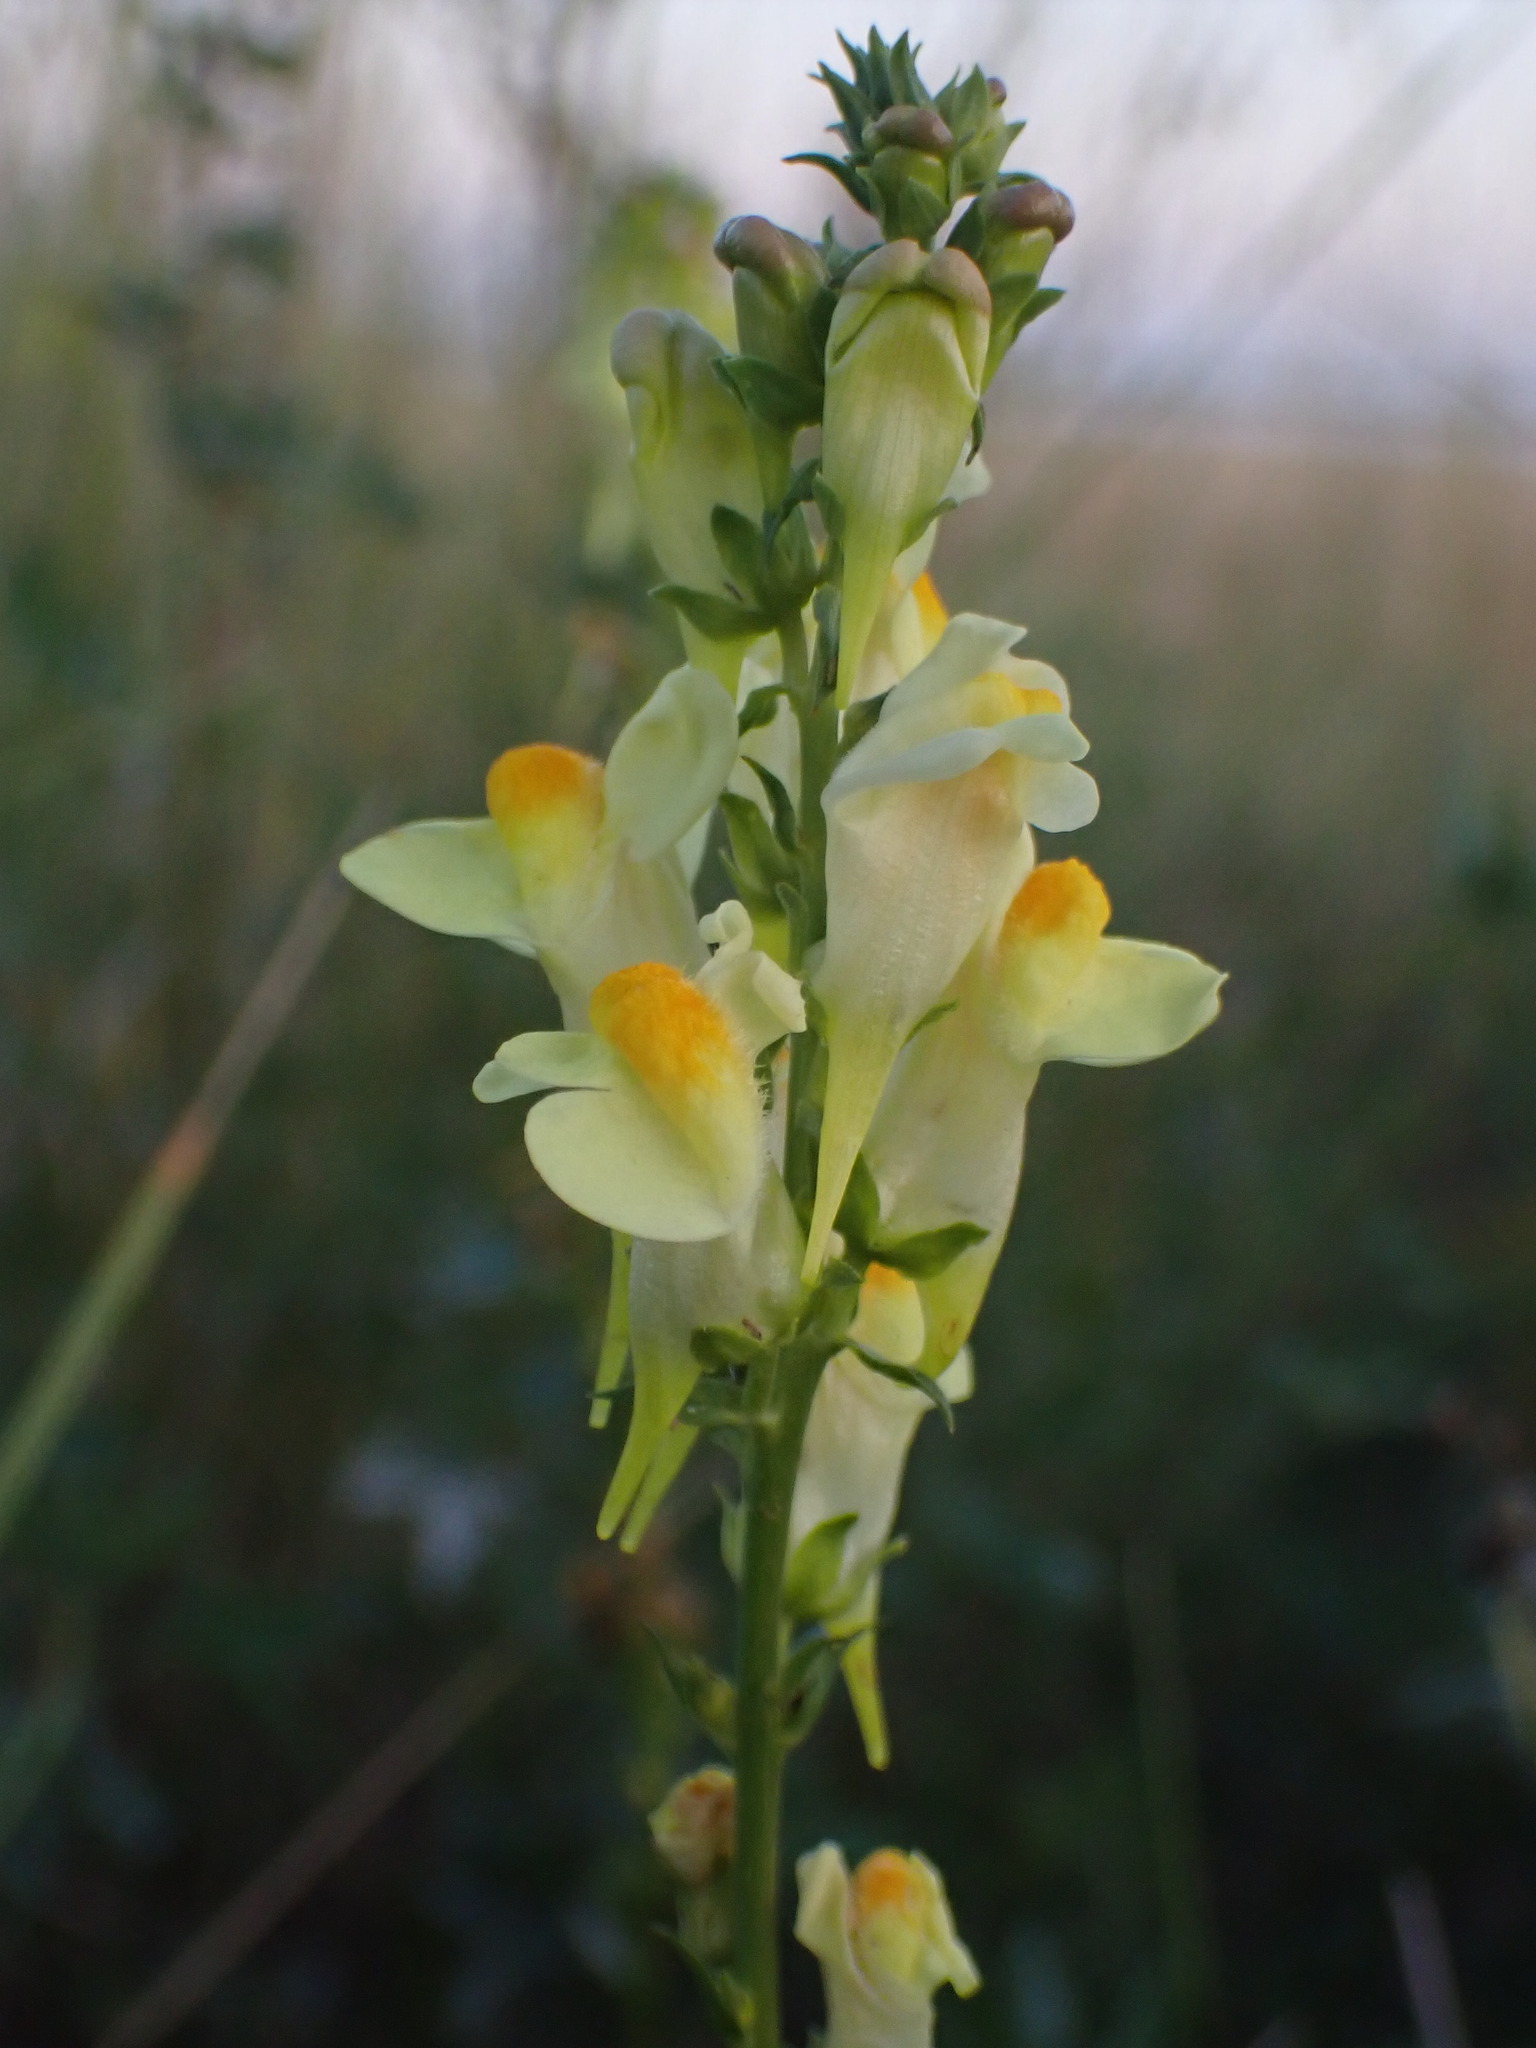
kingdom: Plantae
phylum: Tracheophyta
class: Magnoliopsida
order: Lamiales
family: Plantaginaceae
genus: Linaria
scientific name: Linaria vulgaris
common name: Butter and eggs
